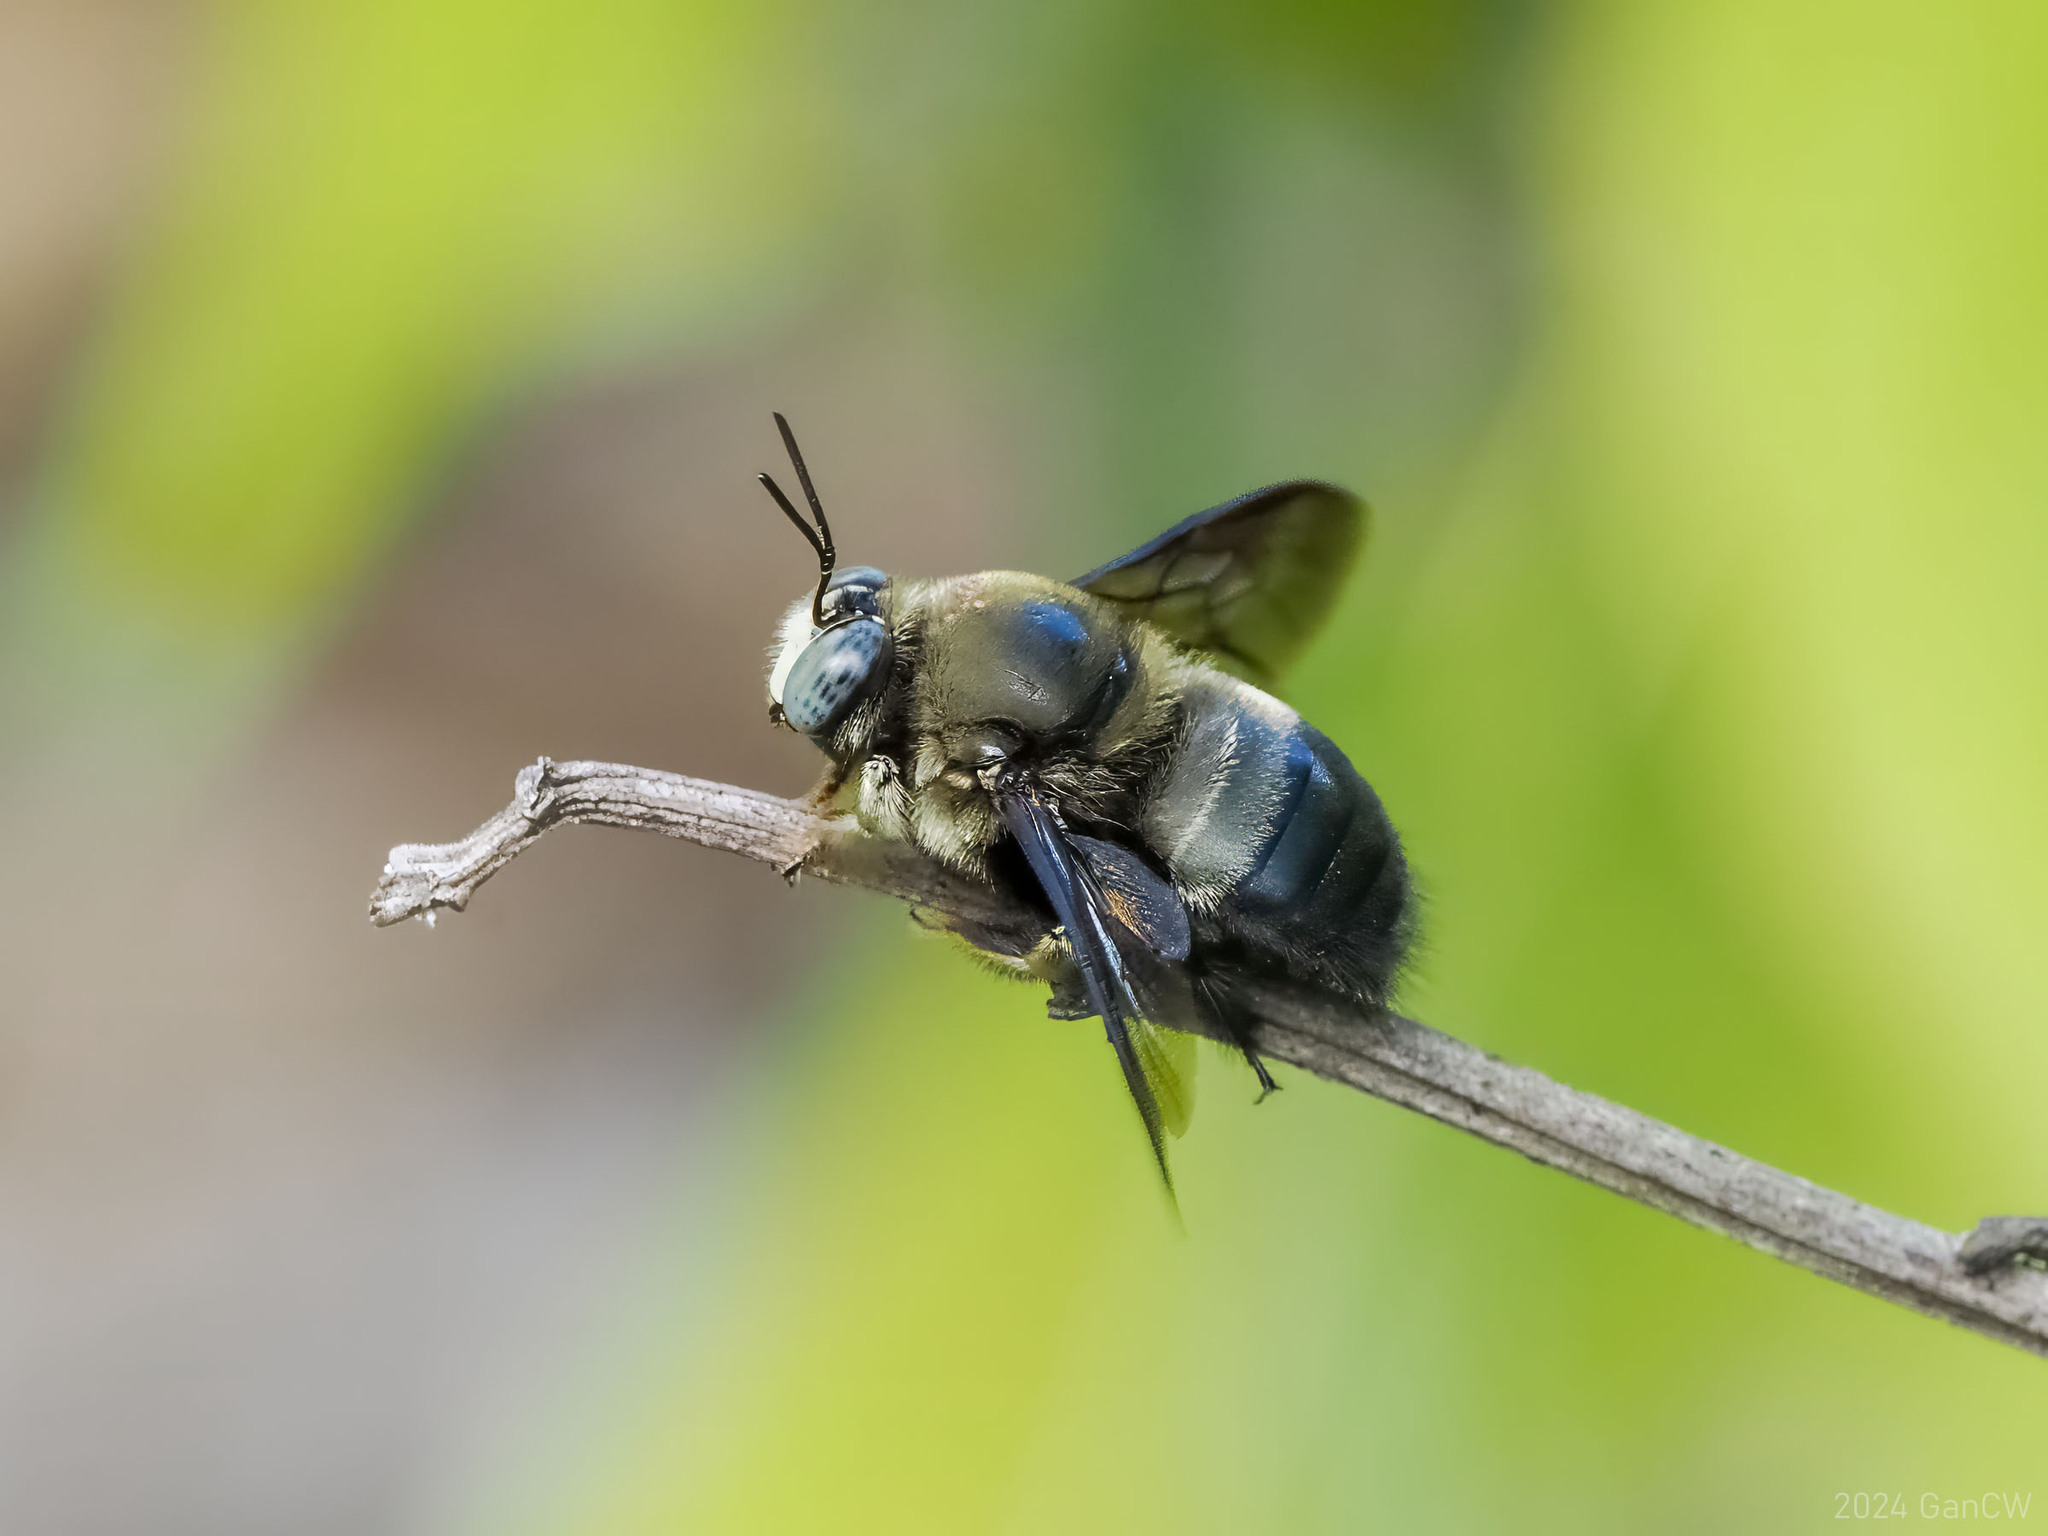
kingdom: Animalia
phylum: Arthropoda
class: Insecta
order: Hymenoptera
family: Apidae
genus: Xylocopa
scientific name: Xylocopa fuliginata
